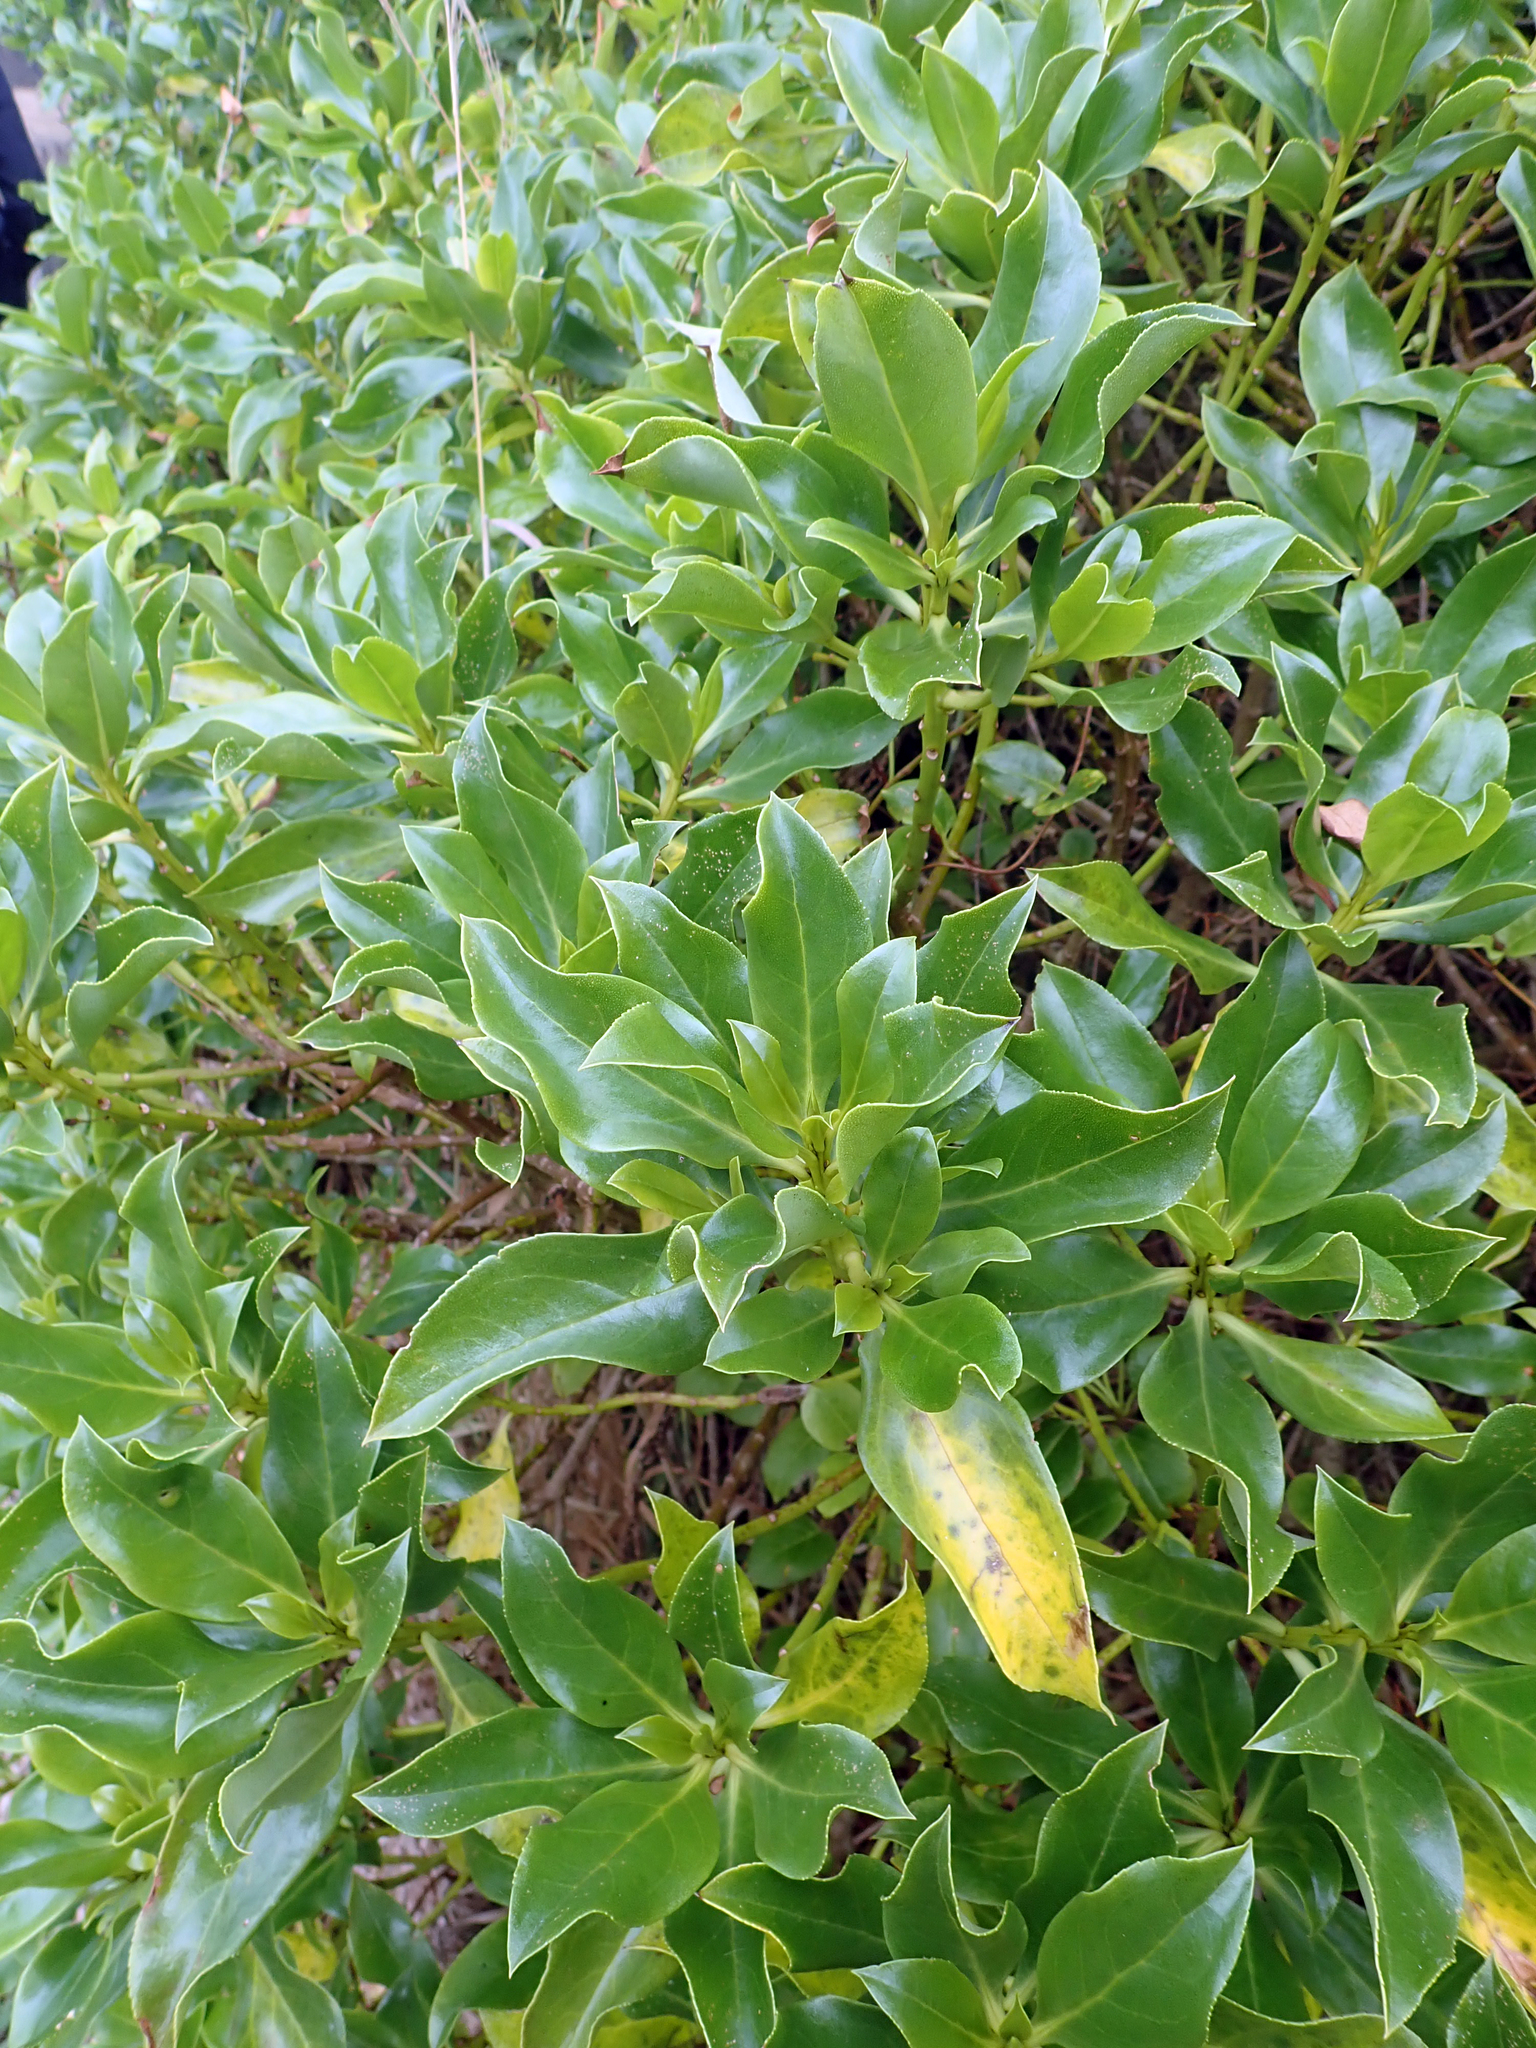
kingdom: Plantae
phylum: Tracheophyta
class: Magnoliopsida
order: Lamiales
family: Scrophulariaceae
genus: Myoporum
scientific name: Myoporum semotum
